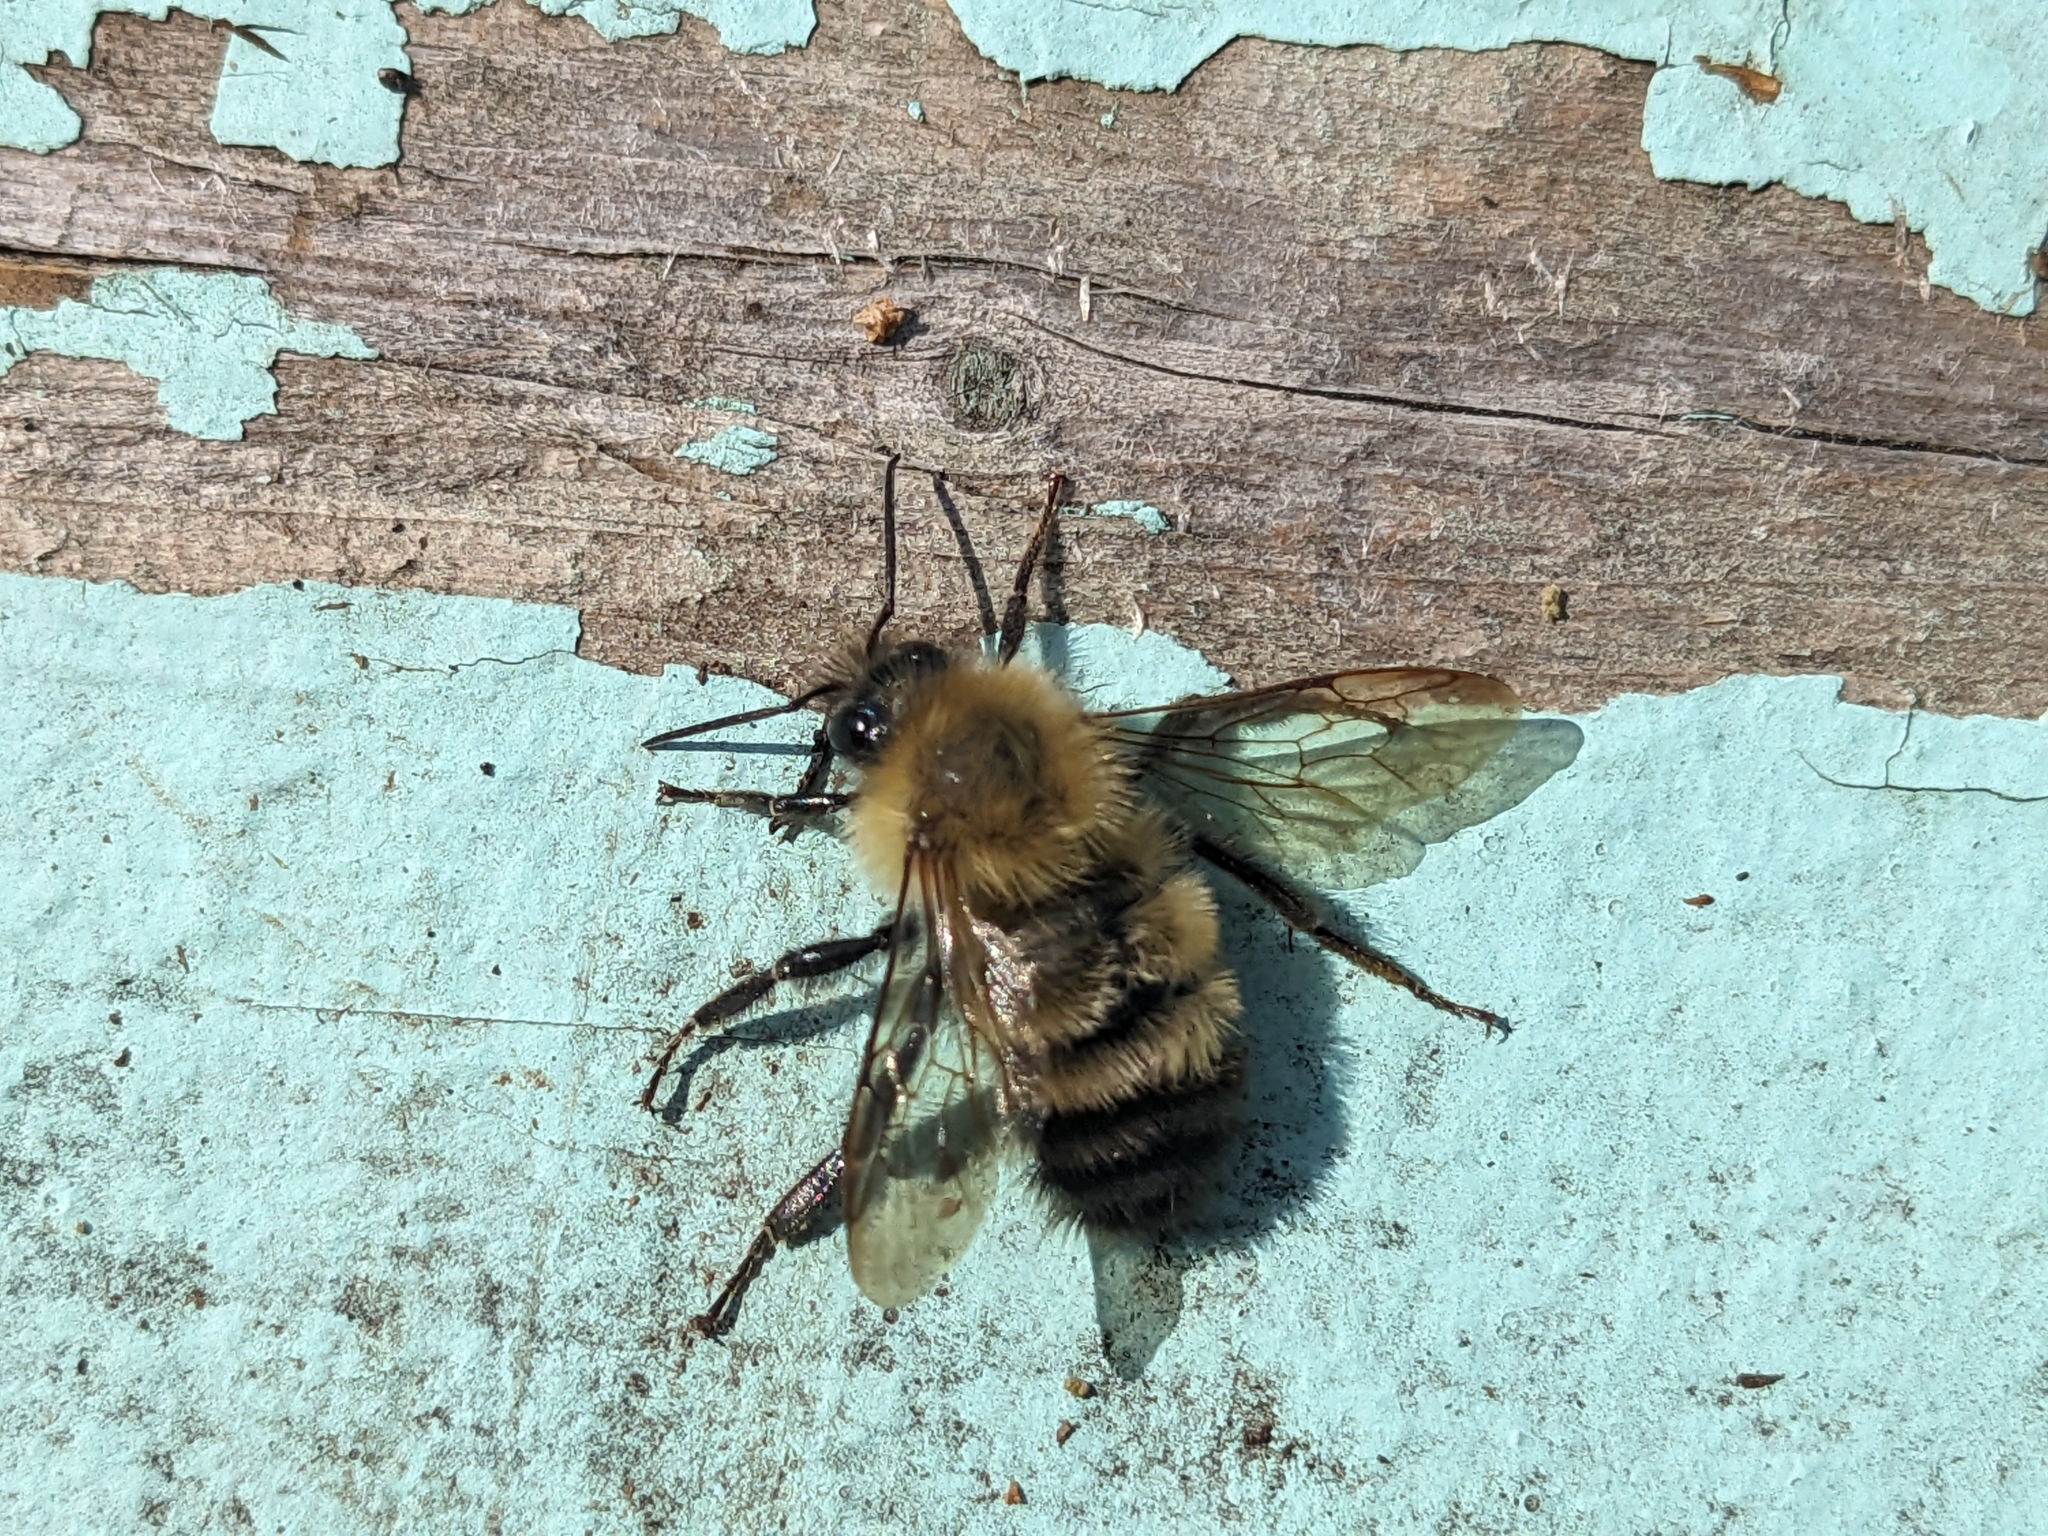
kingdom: Animalia
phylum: Arthropoda
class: Insecta
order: Hymenoptera
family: Apidae
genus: Bombus
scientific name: Bombus perplexus
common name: Confusing bumble bee
